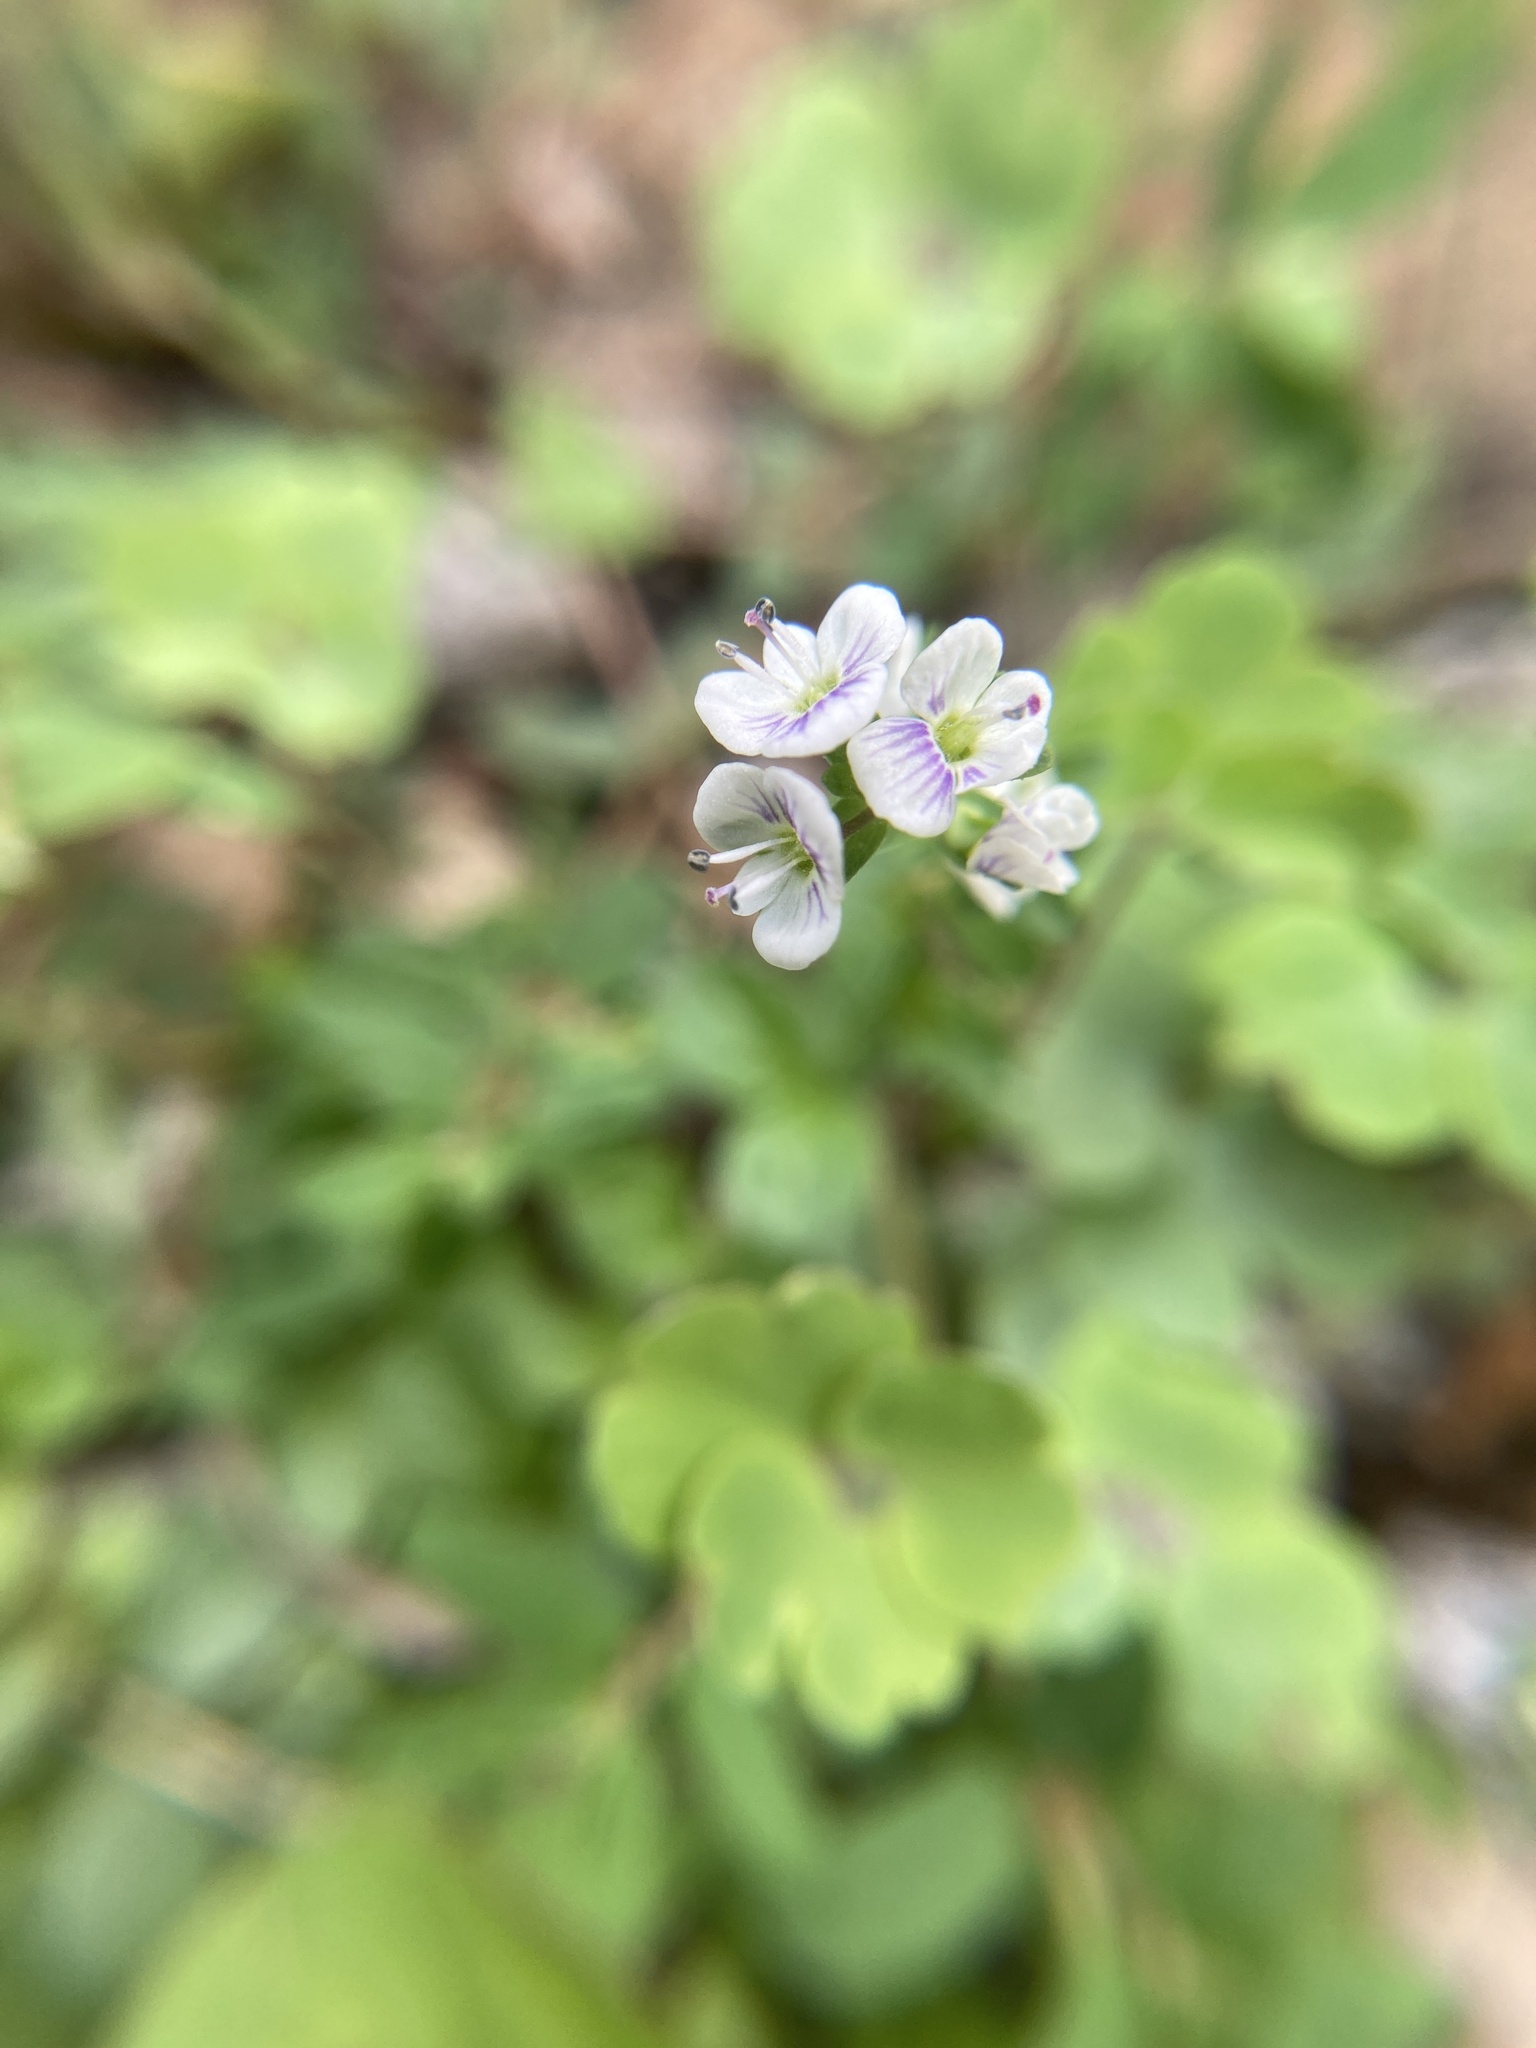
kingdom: Plantae
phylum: Tracheophyta
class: Magnoliopsida
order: Lamiales
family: Plantaginaceae
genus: Veronica
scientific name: Veronica serpyllifolia
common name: Thyme-leaved speedwell
